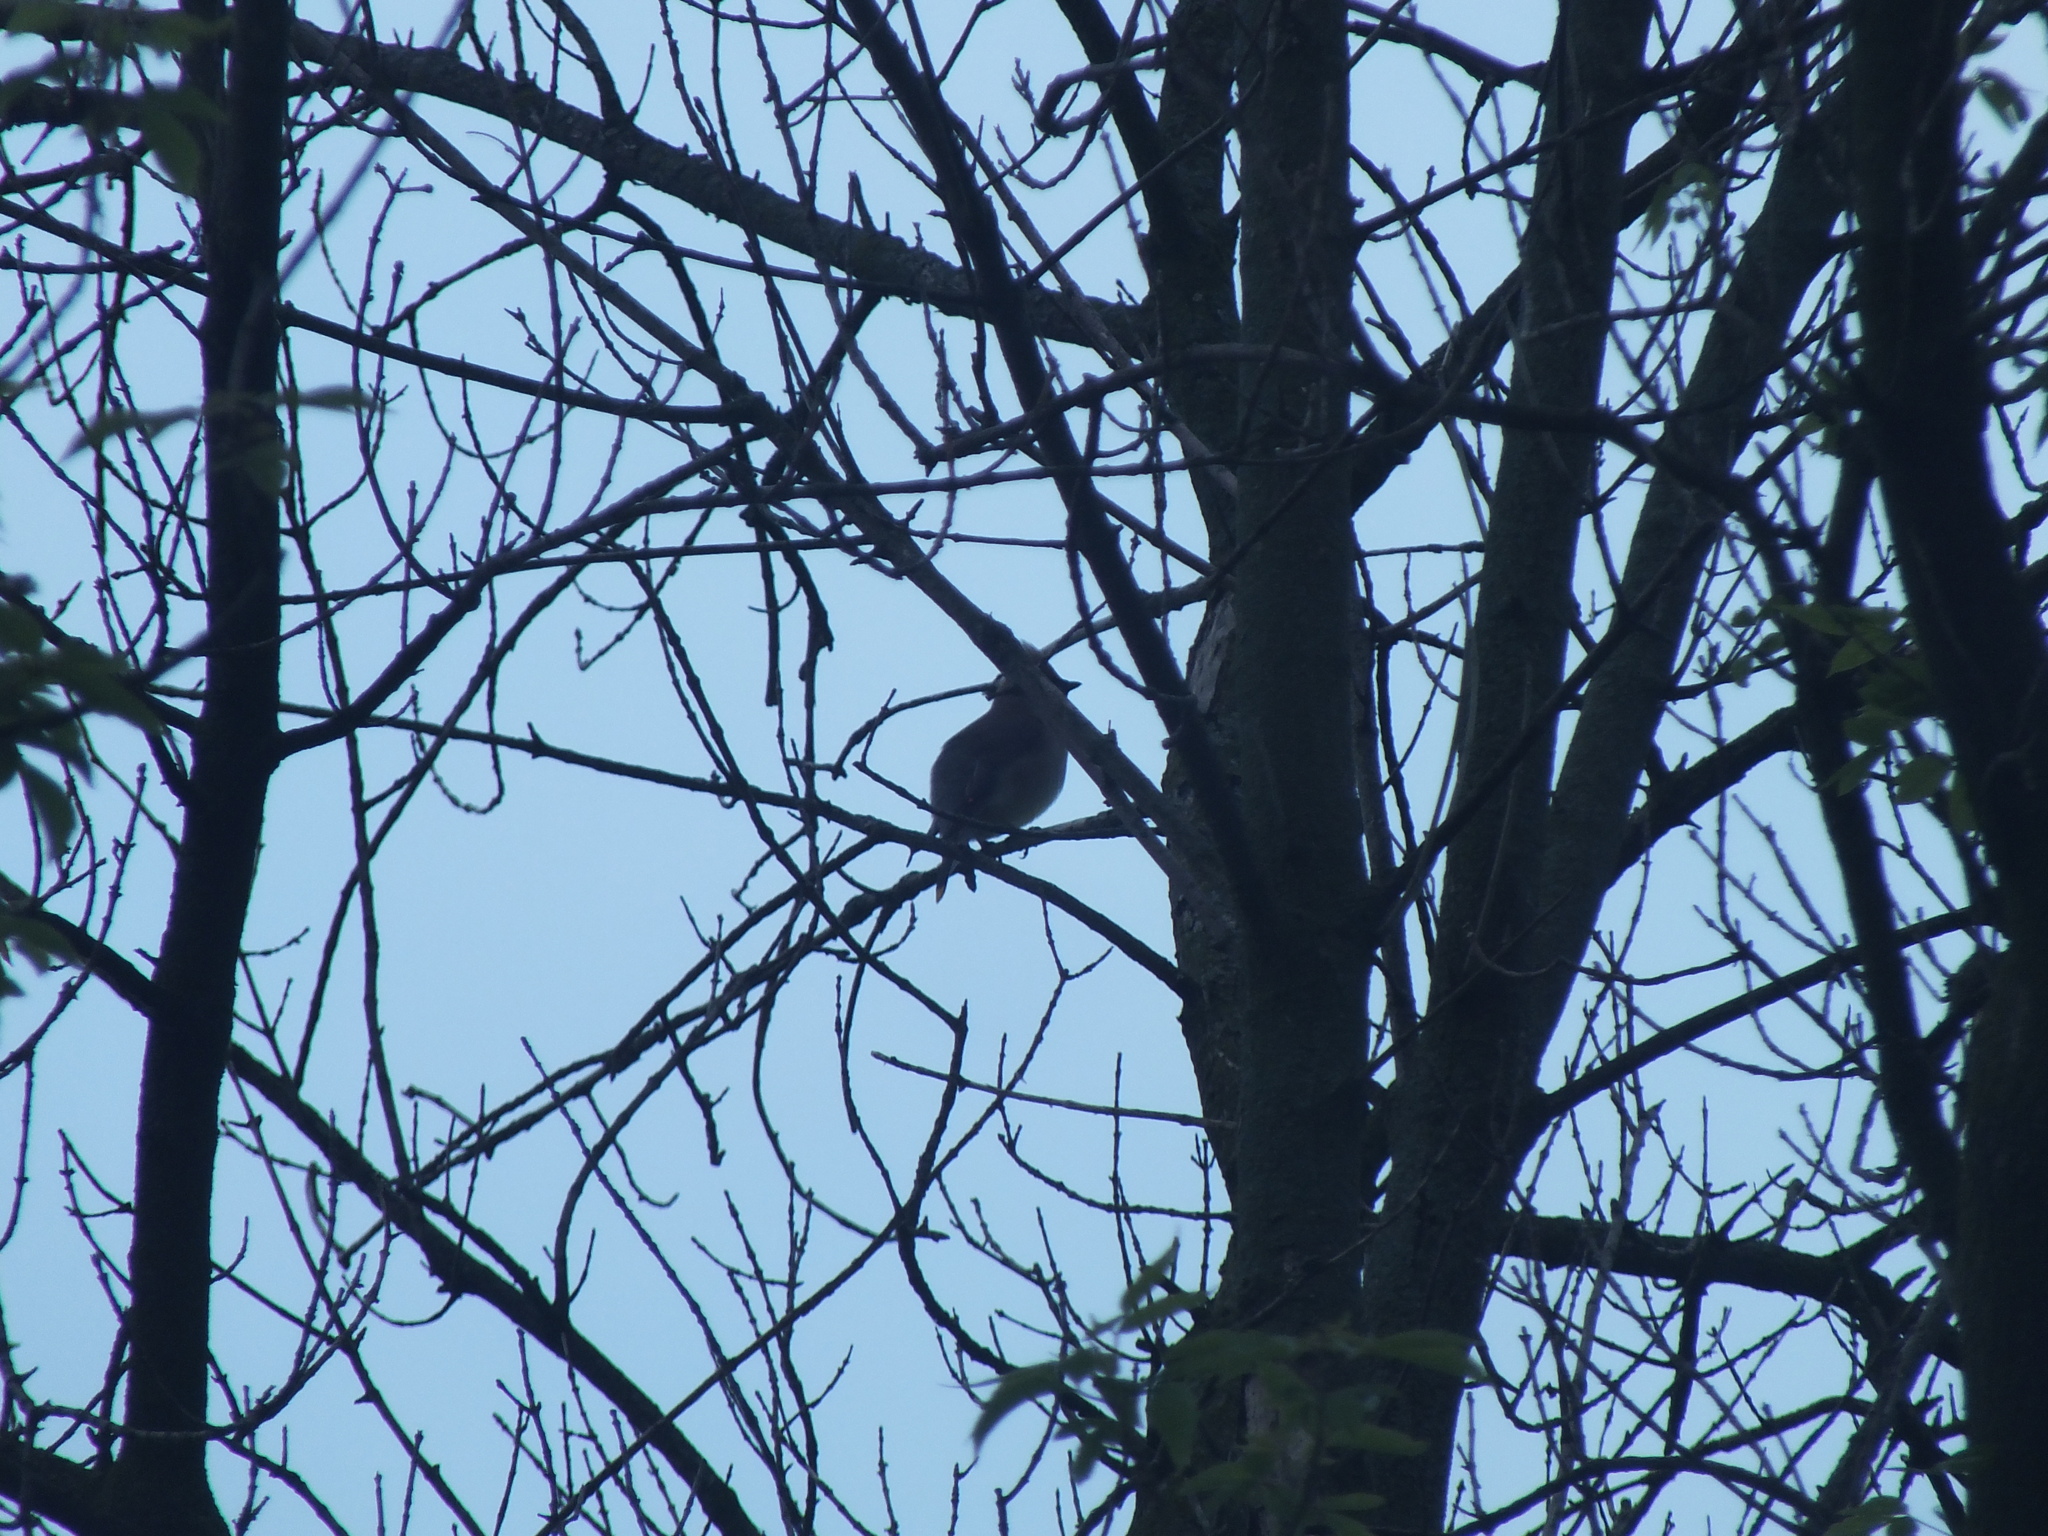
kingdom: Animalia
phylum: Chordata
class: Aves
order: Passeriformes
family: Bombycillidae
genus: Bombycilla
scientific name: Bombycilla cedrorum
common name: Cedar waxwing
